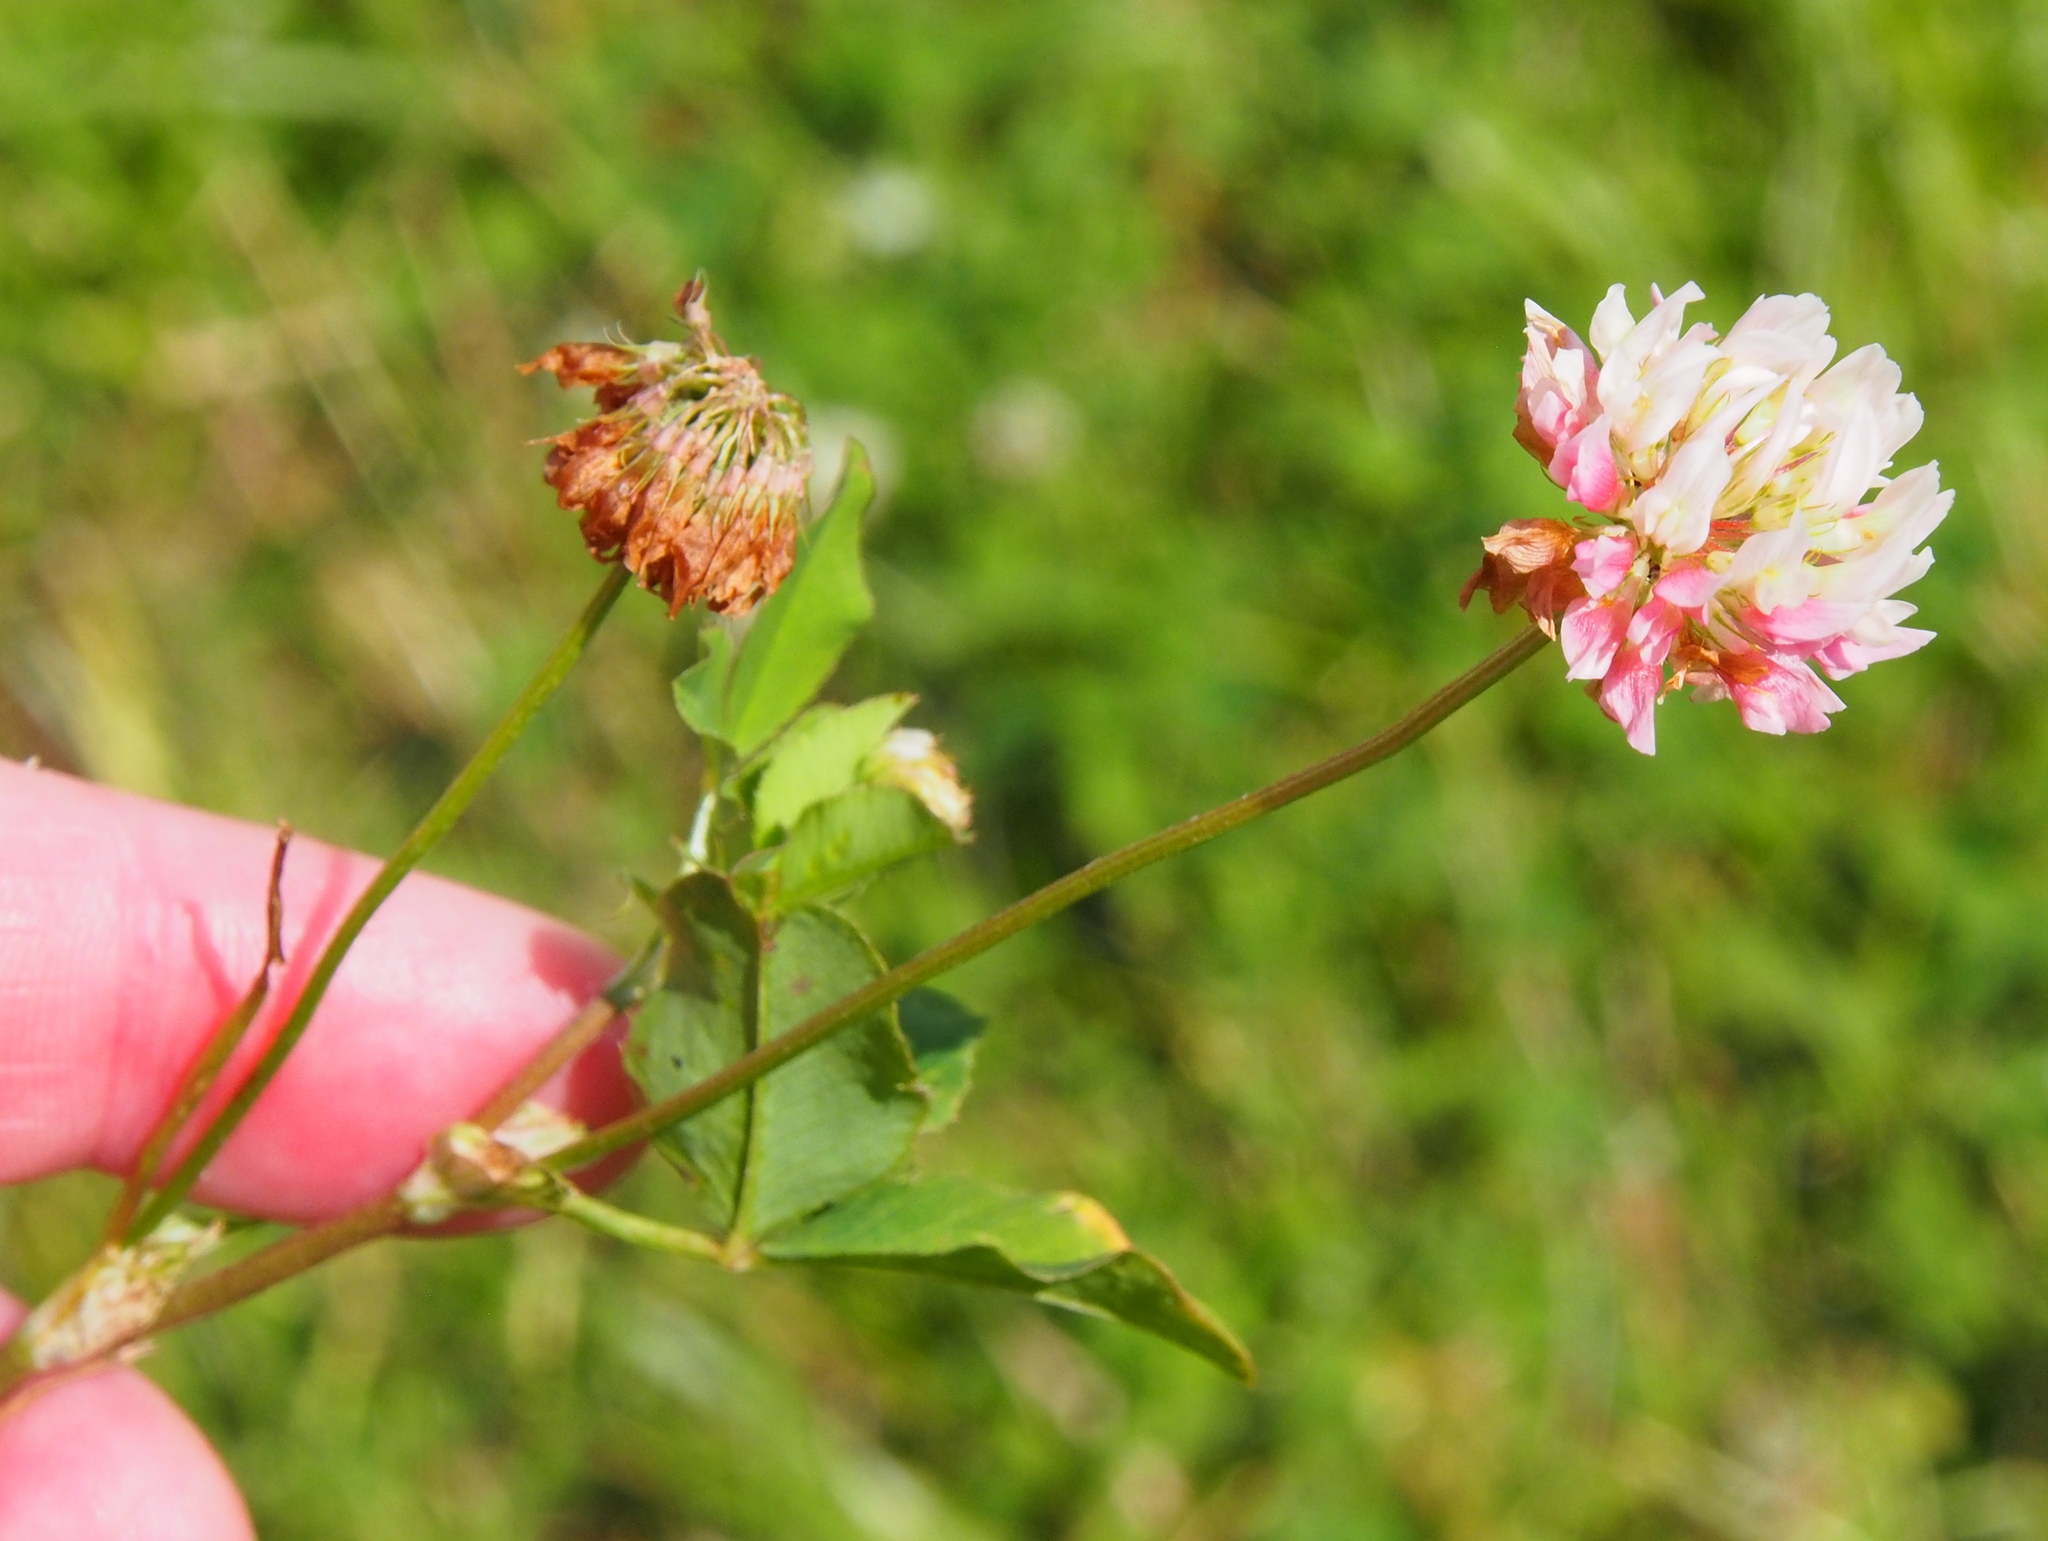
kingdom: Plantae
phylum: Tracheophyta
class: Magnoliopsida
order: Fabales
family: Fabaceae
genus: Trifolium
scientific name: Trifolium hybridum
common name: Alsike clover
